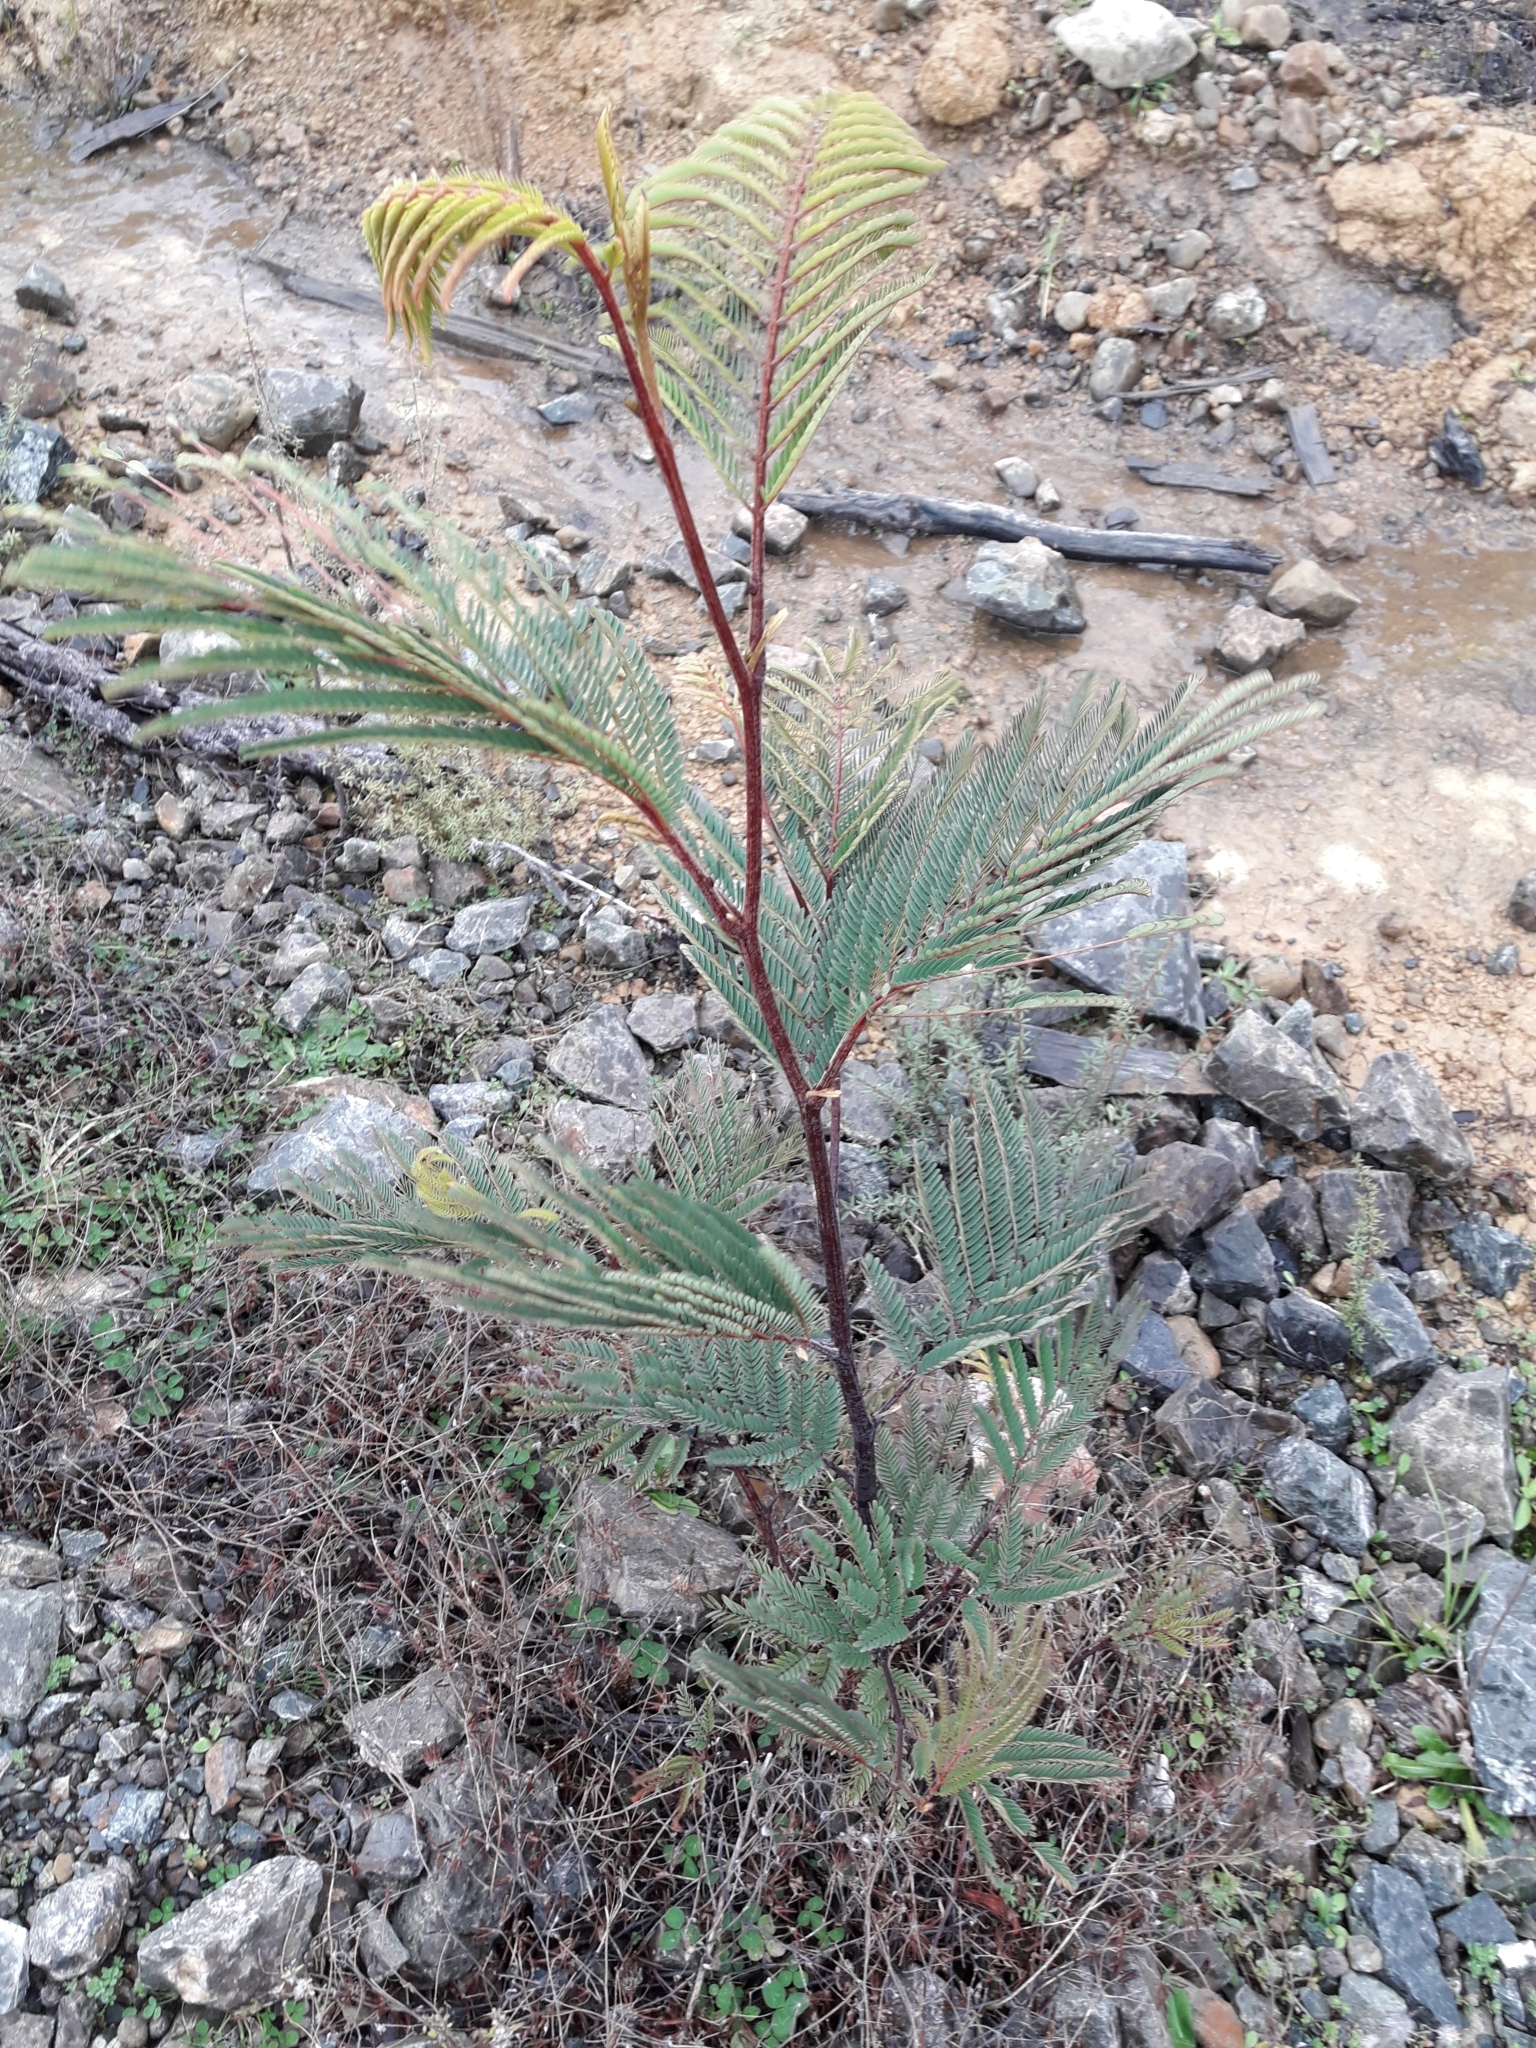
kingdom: Plantae
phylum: Tracheophyta
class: Magnoliopsida
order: Fabales
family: Fabaceae
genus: Paraserianthes
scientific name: Paraserianthes lophantha
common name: Plume albizia
